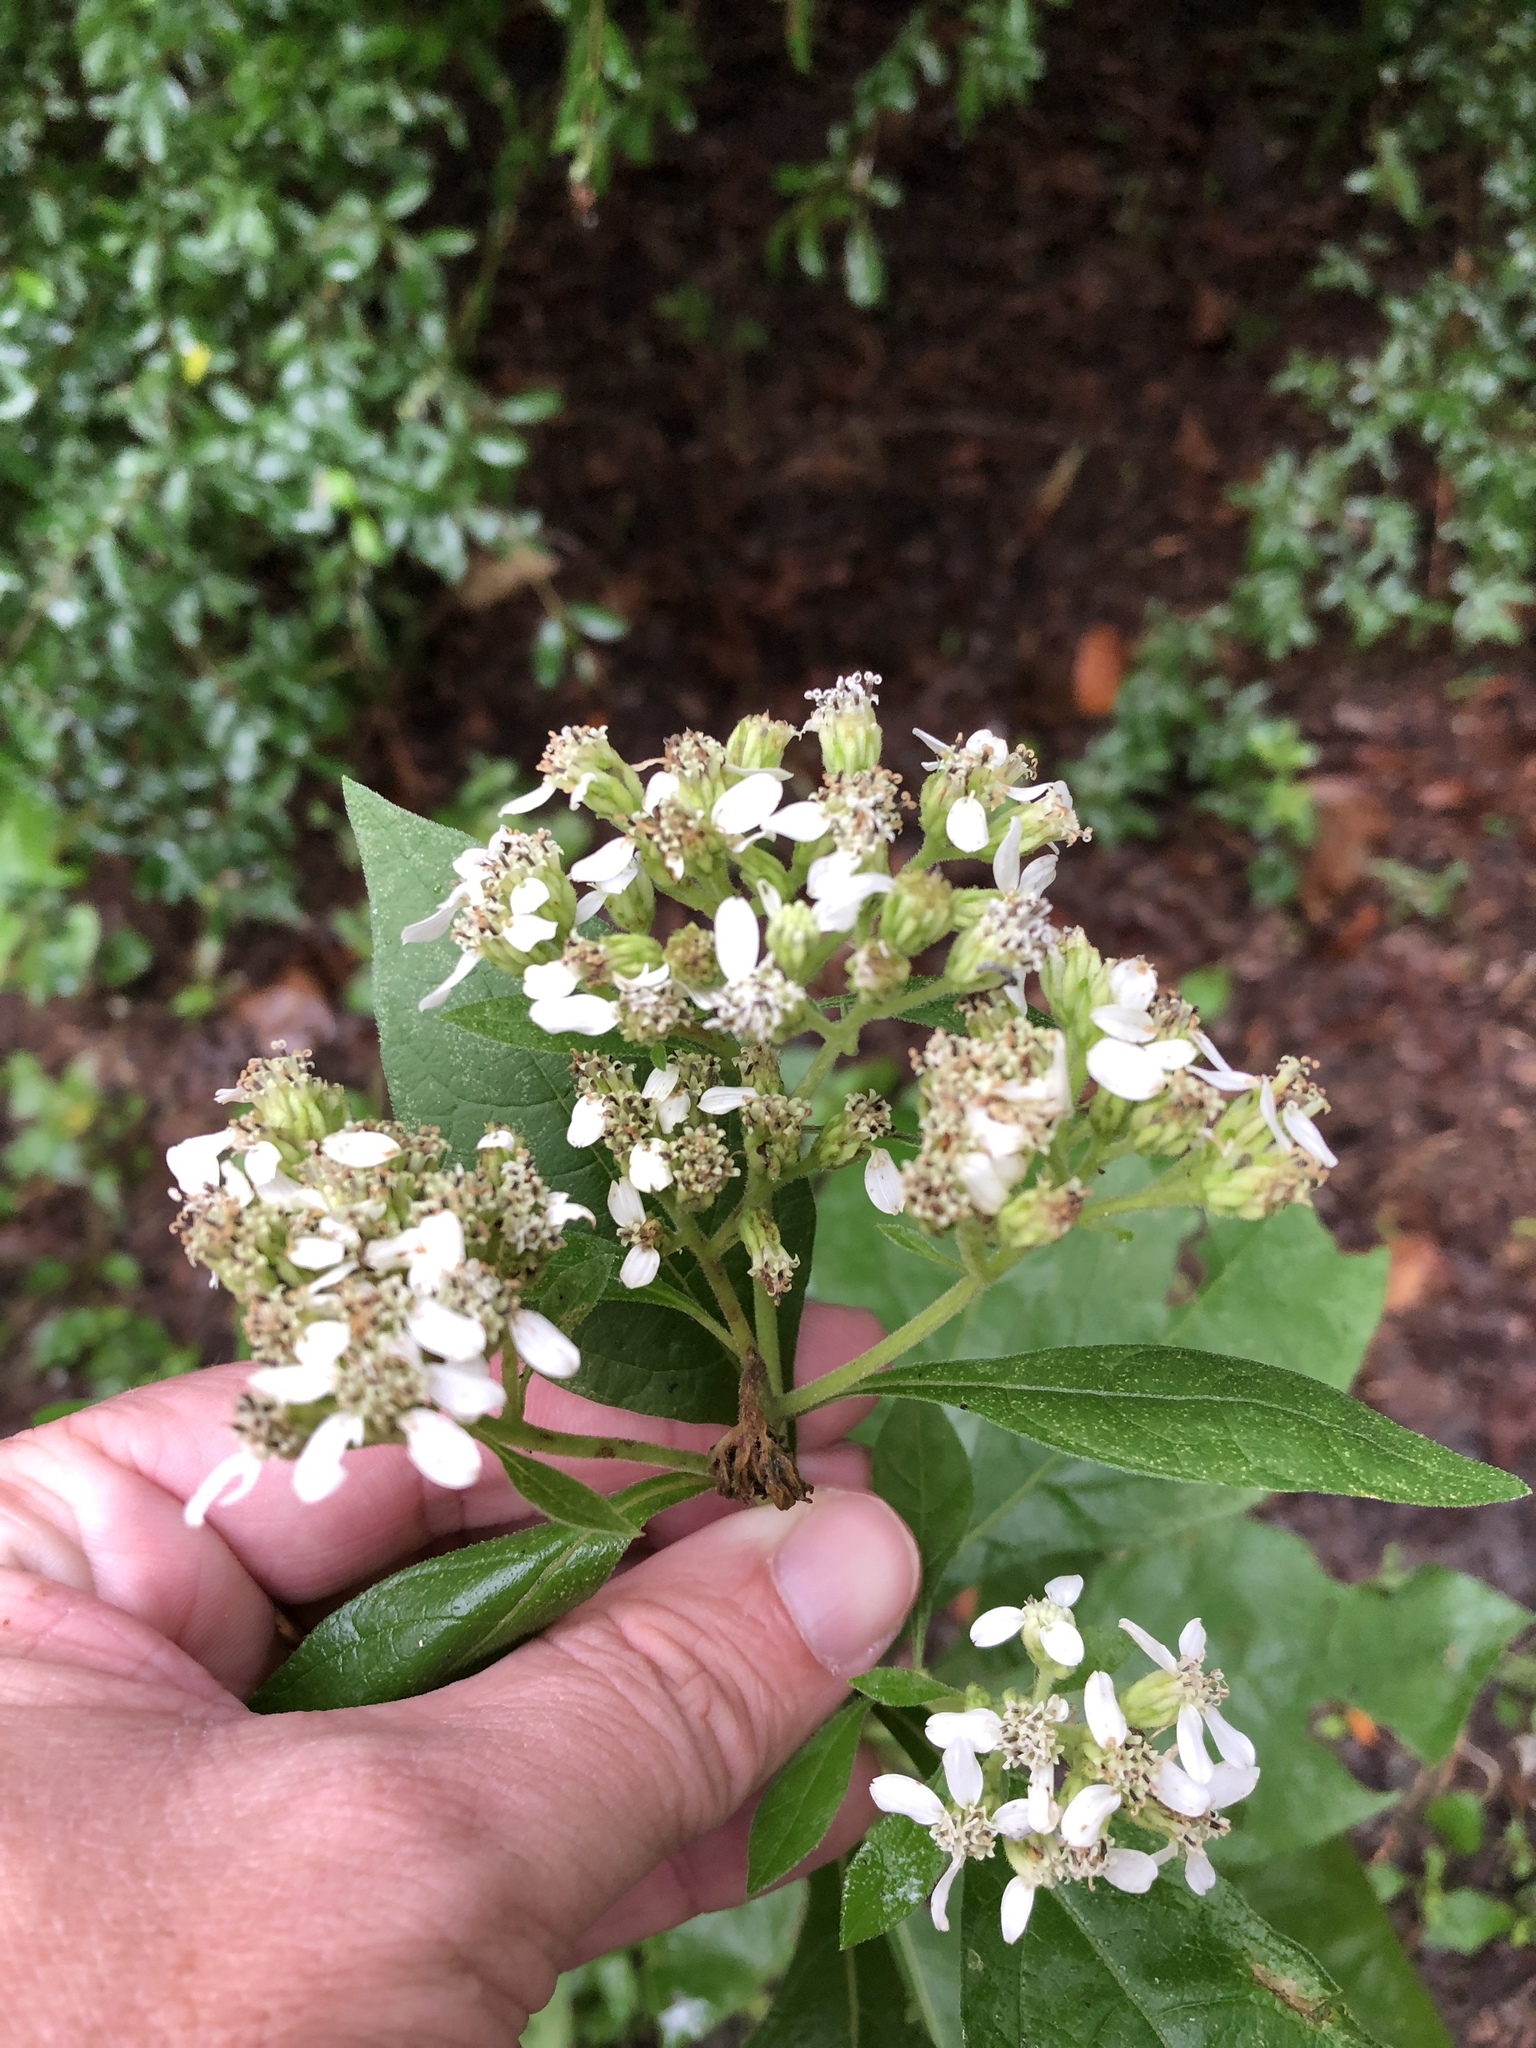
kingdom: Plantae
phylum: Tracheophyta
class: Magnoliopsida
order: Asterales
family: Asteraceae
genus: Verbesina
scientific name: Verbesina virginica
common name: Frostweed
